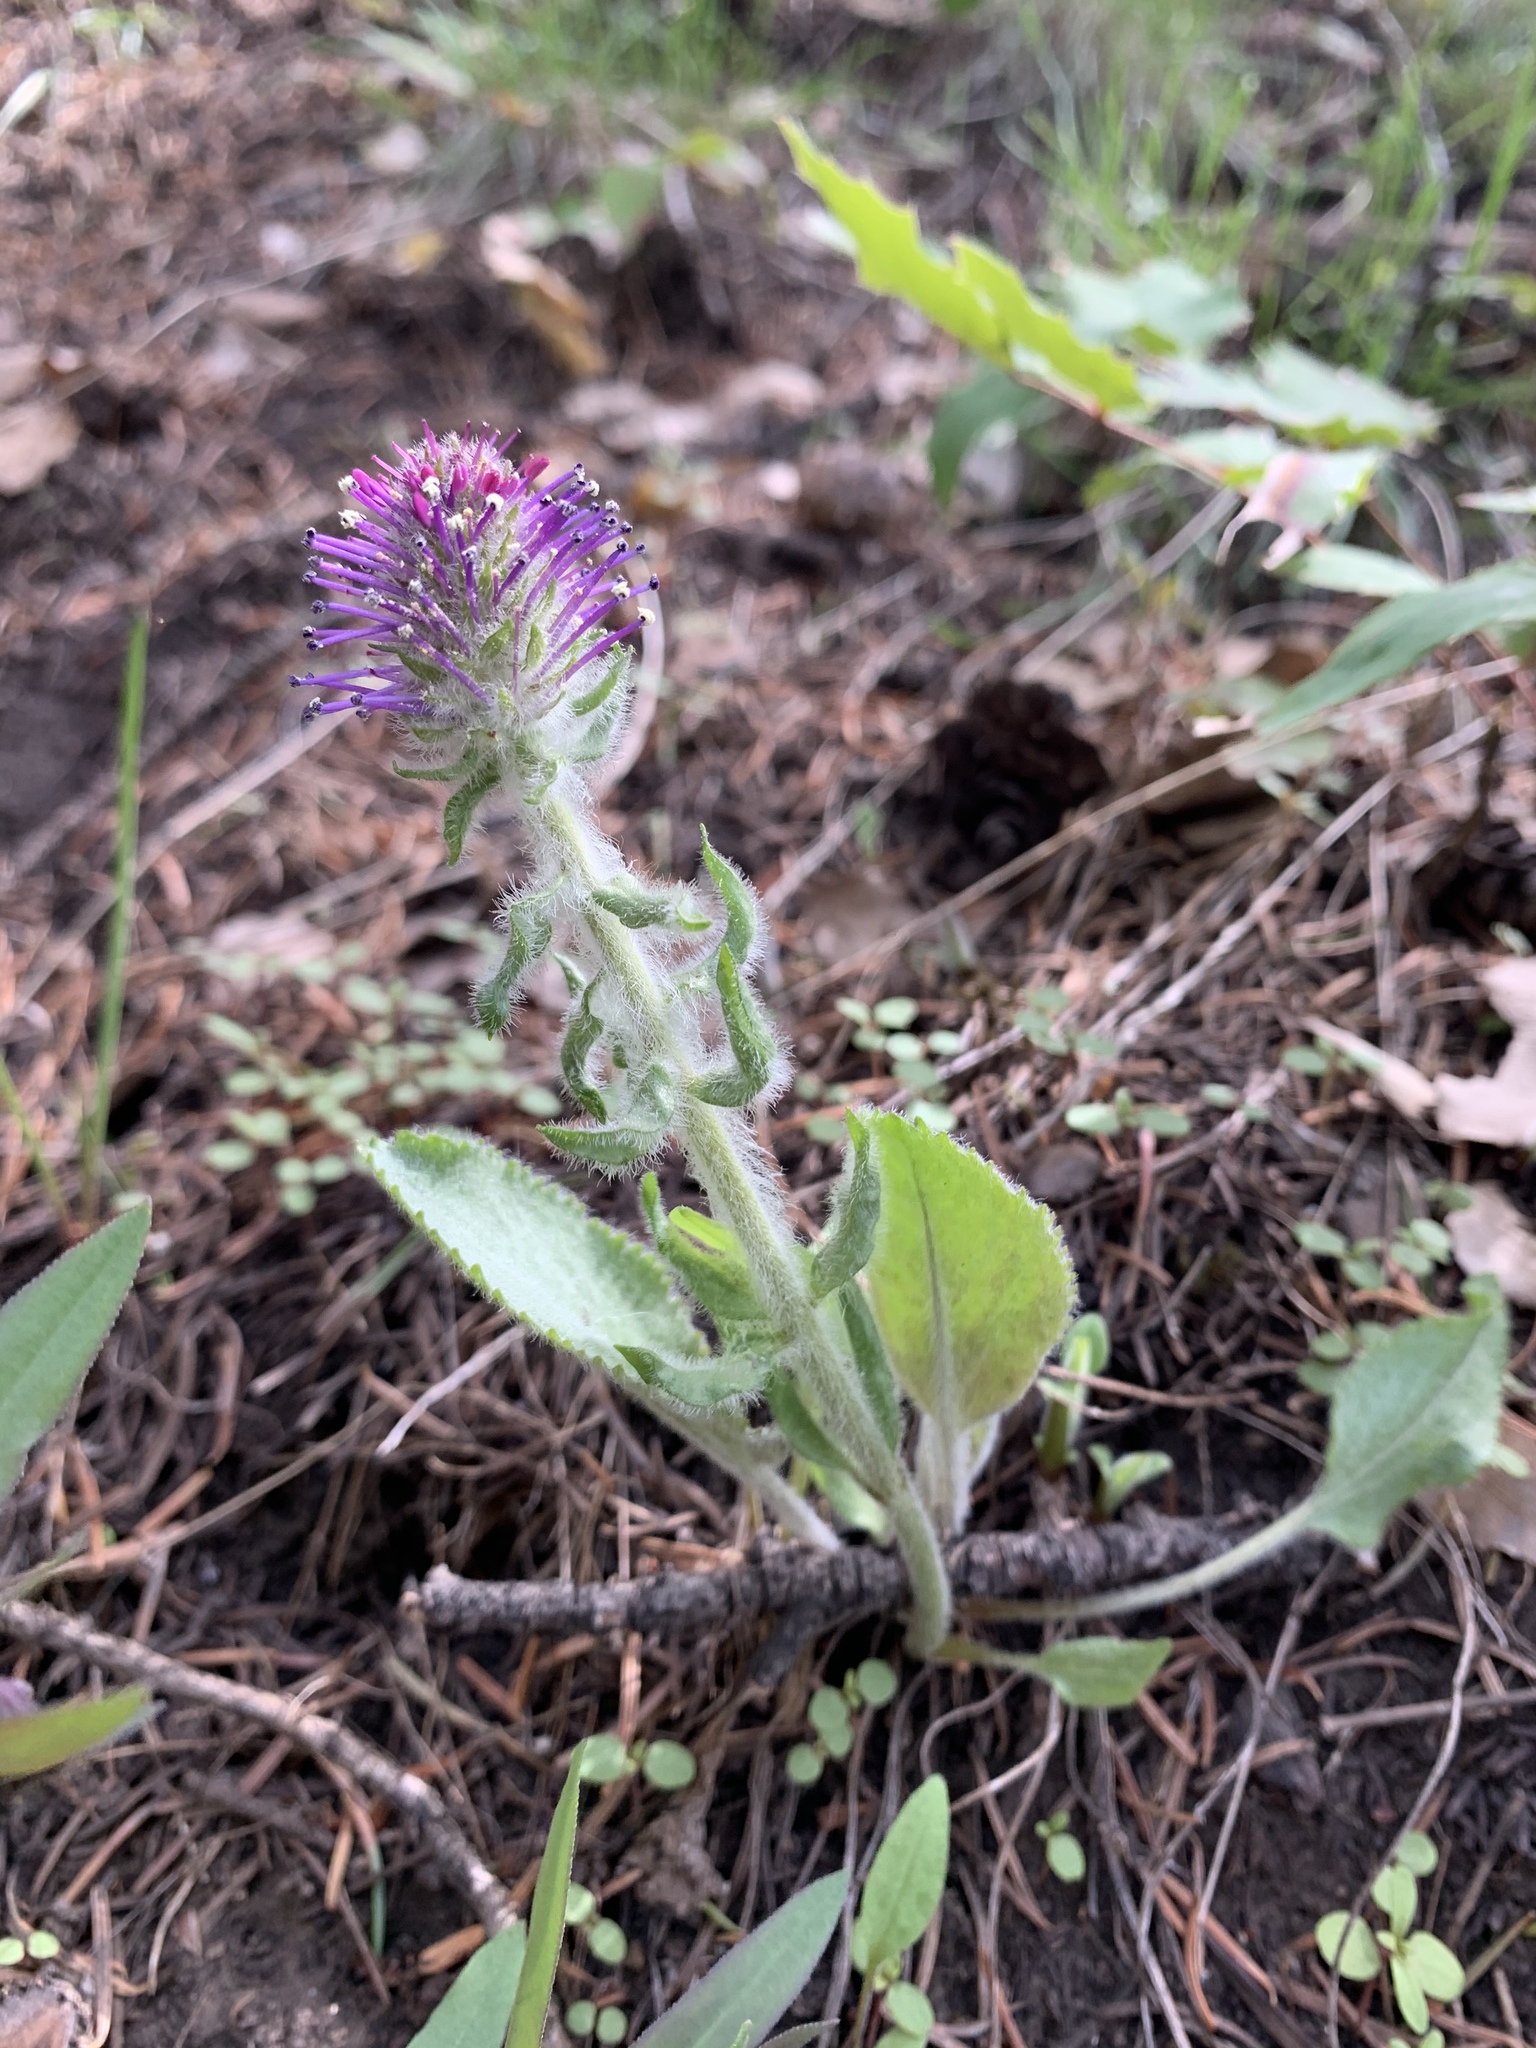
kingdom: Plantae
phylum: Tracheophyta
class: Magnoliopsida
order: Lamiales
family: Plantaginaceae
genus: Synthyris
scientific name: Synthyris wyomingensis
